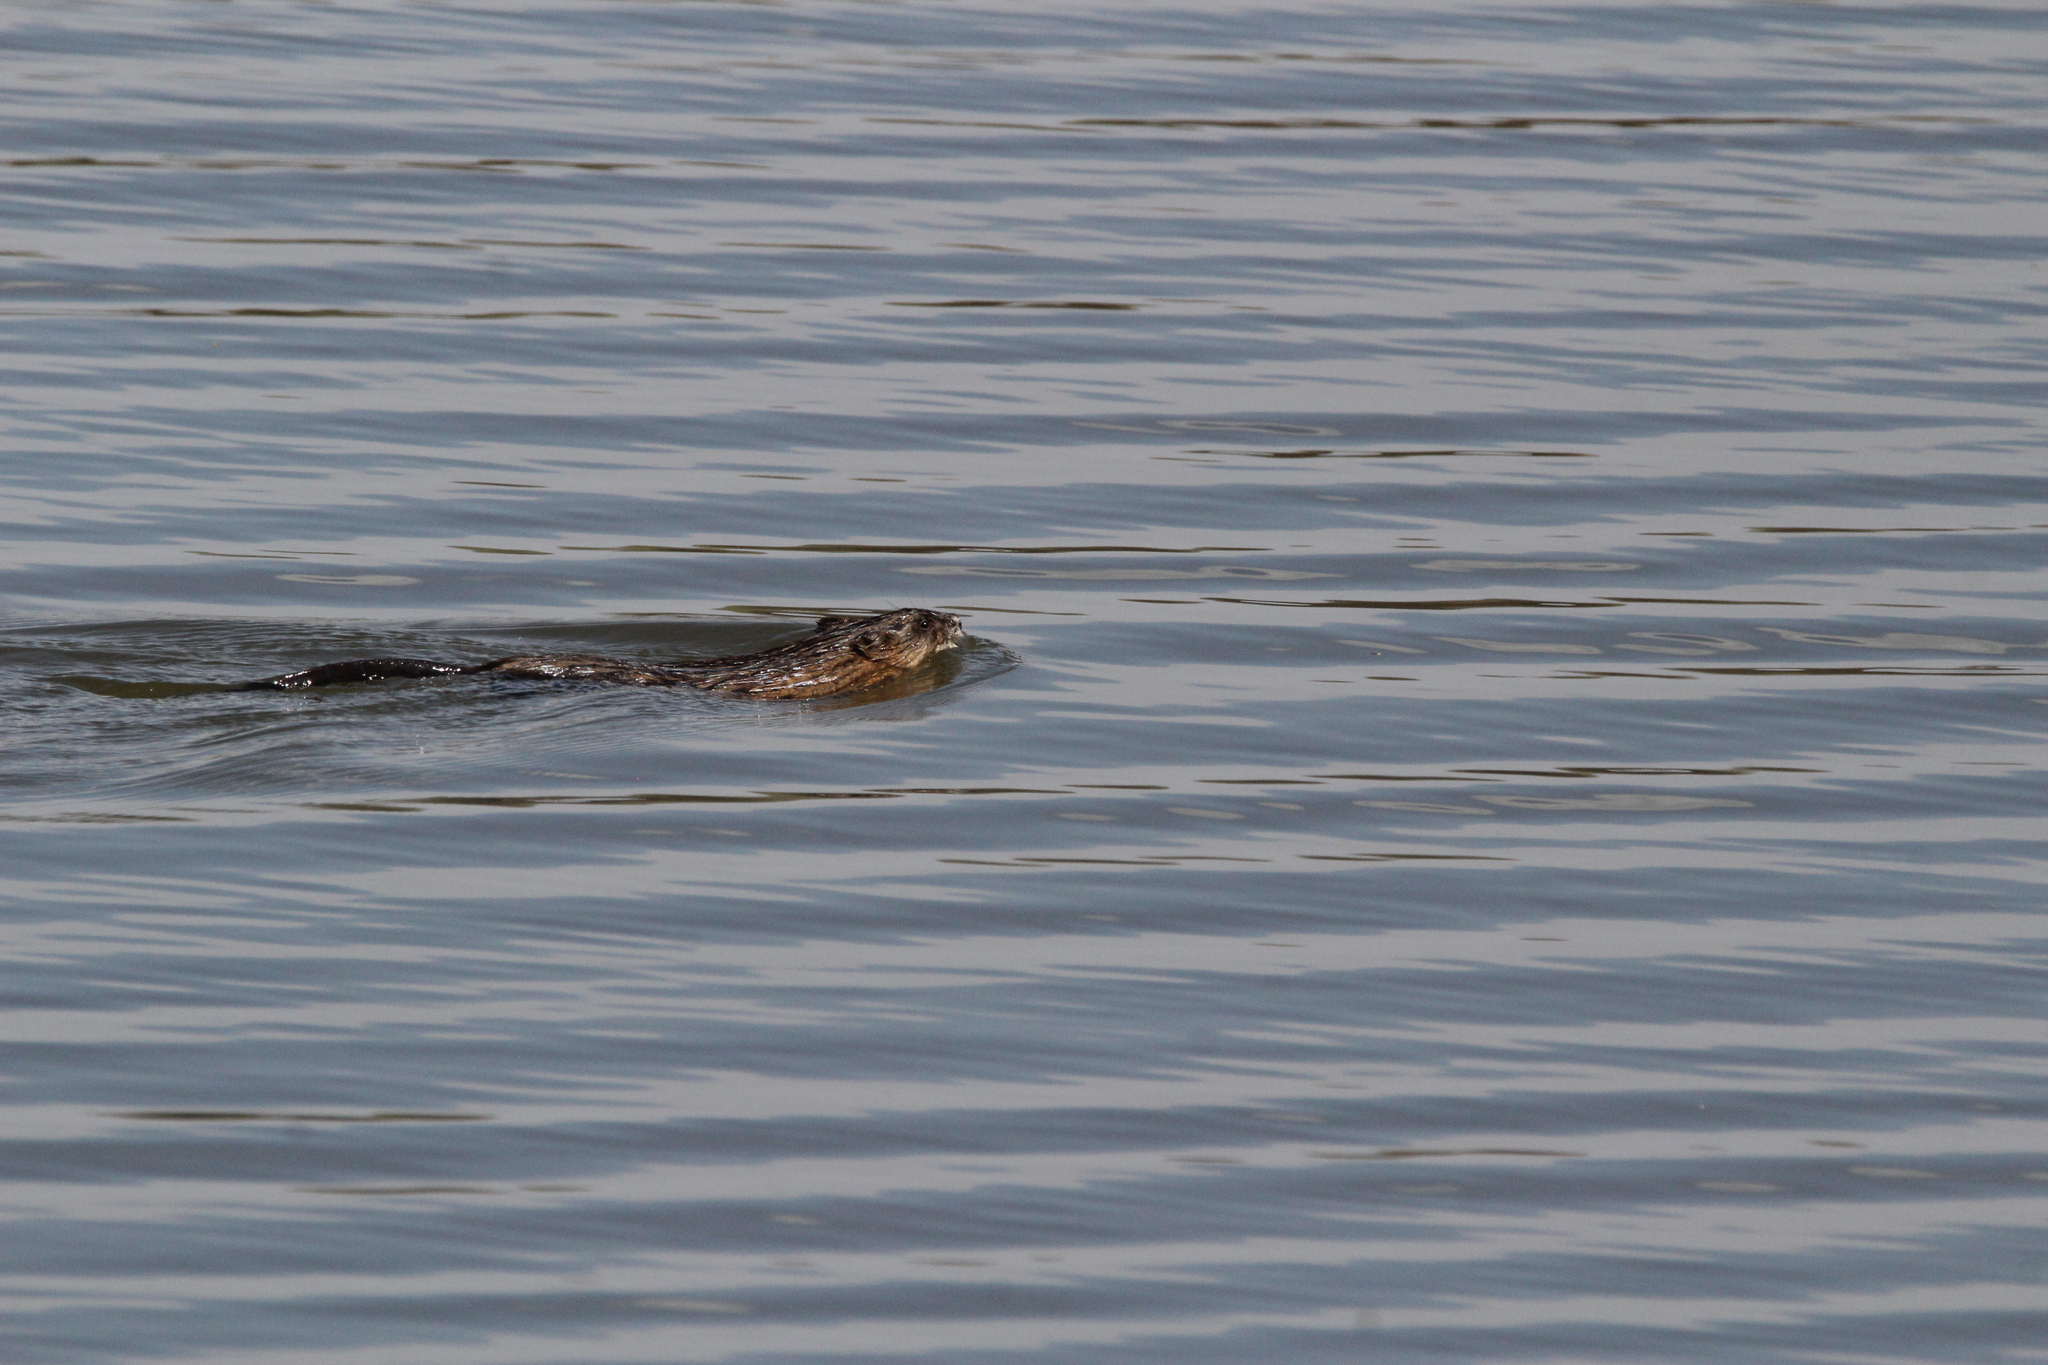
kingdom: Animalia
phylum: Chordata
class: Mammalia
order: Rodentia
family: Cricetidae
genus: Ondatra
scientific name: Ondatra zibethicus
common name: Muskrat
